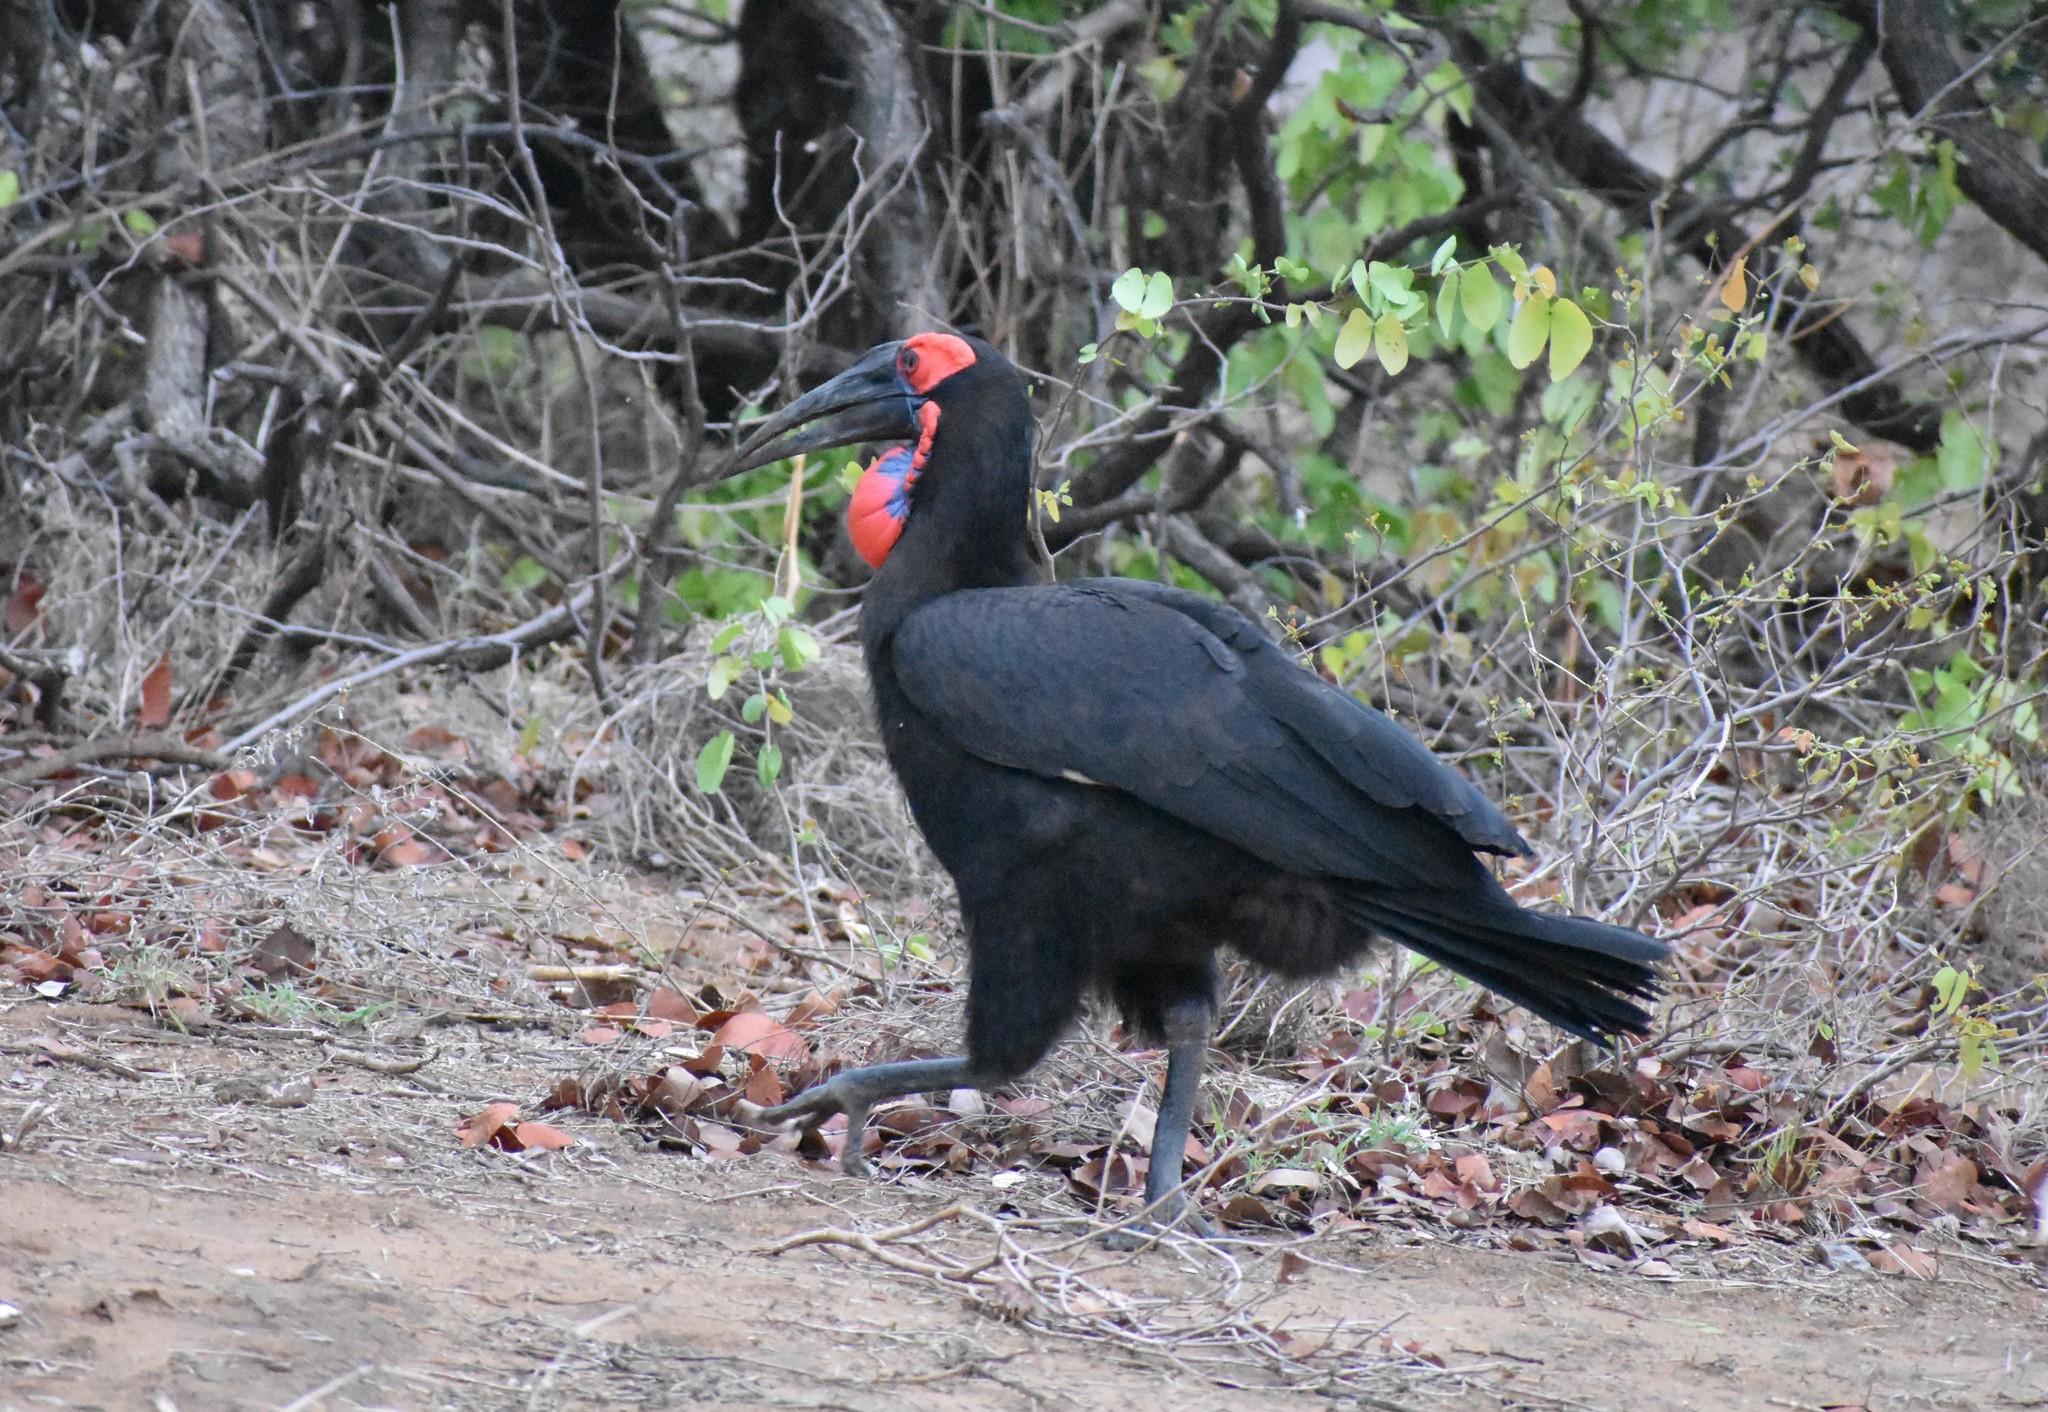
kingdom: Animalia
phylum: Chordata
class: Aves
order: Bucerotiformes
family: Bucorvidae
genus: Bucorvus
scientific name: Bucorvus leadbeateri
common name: Southern ground-hornbill
